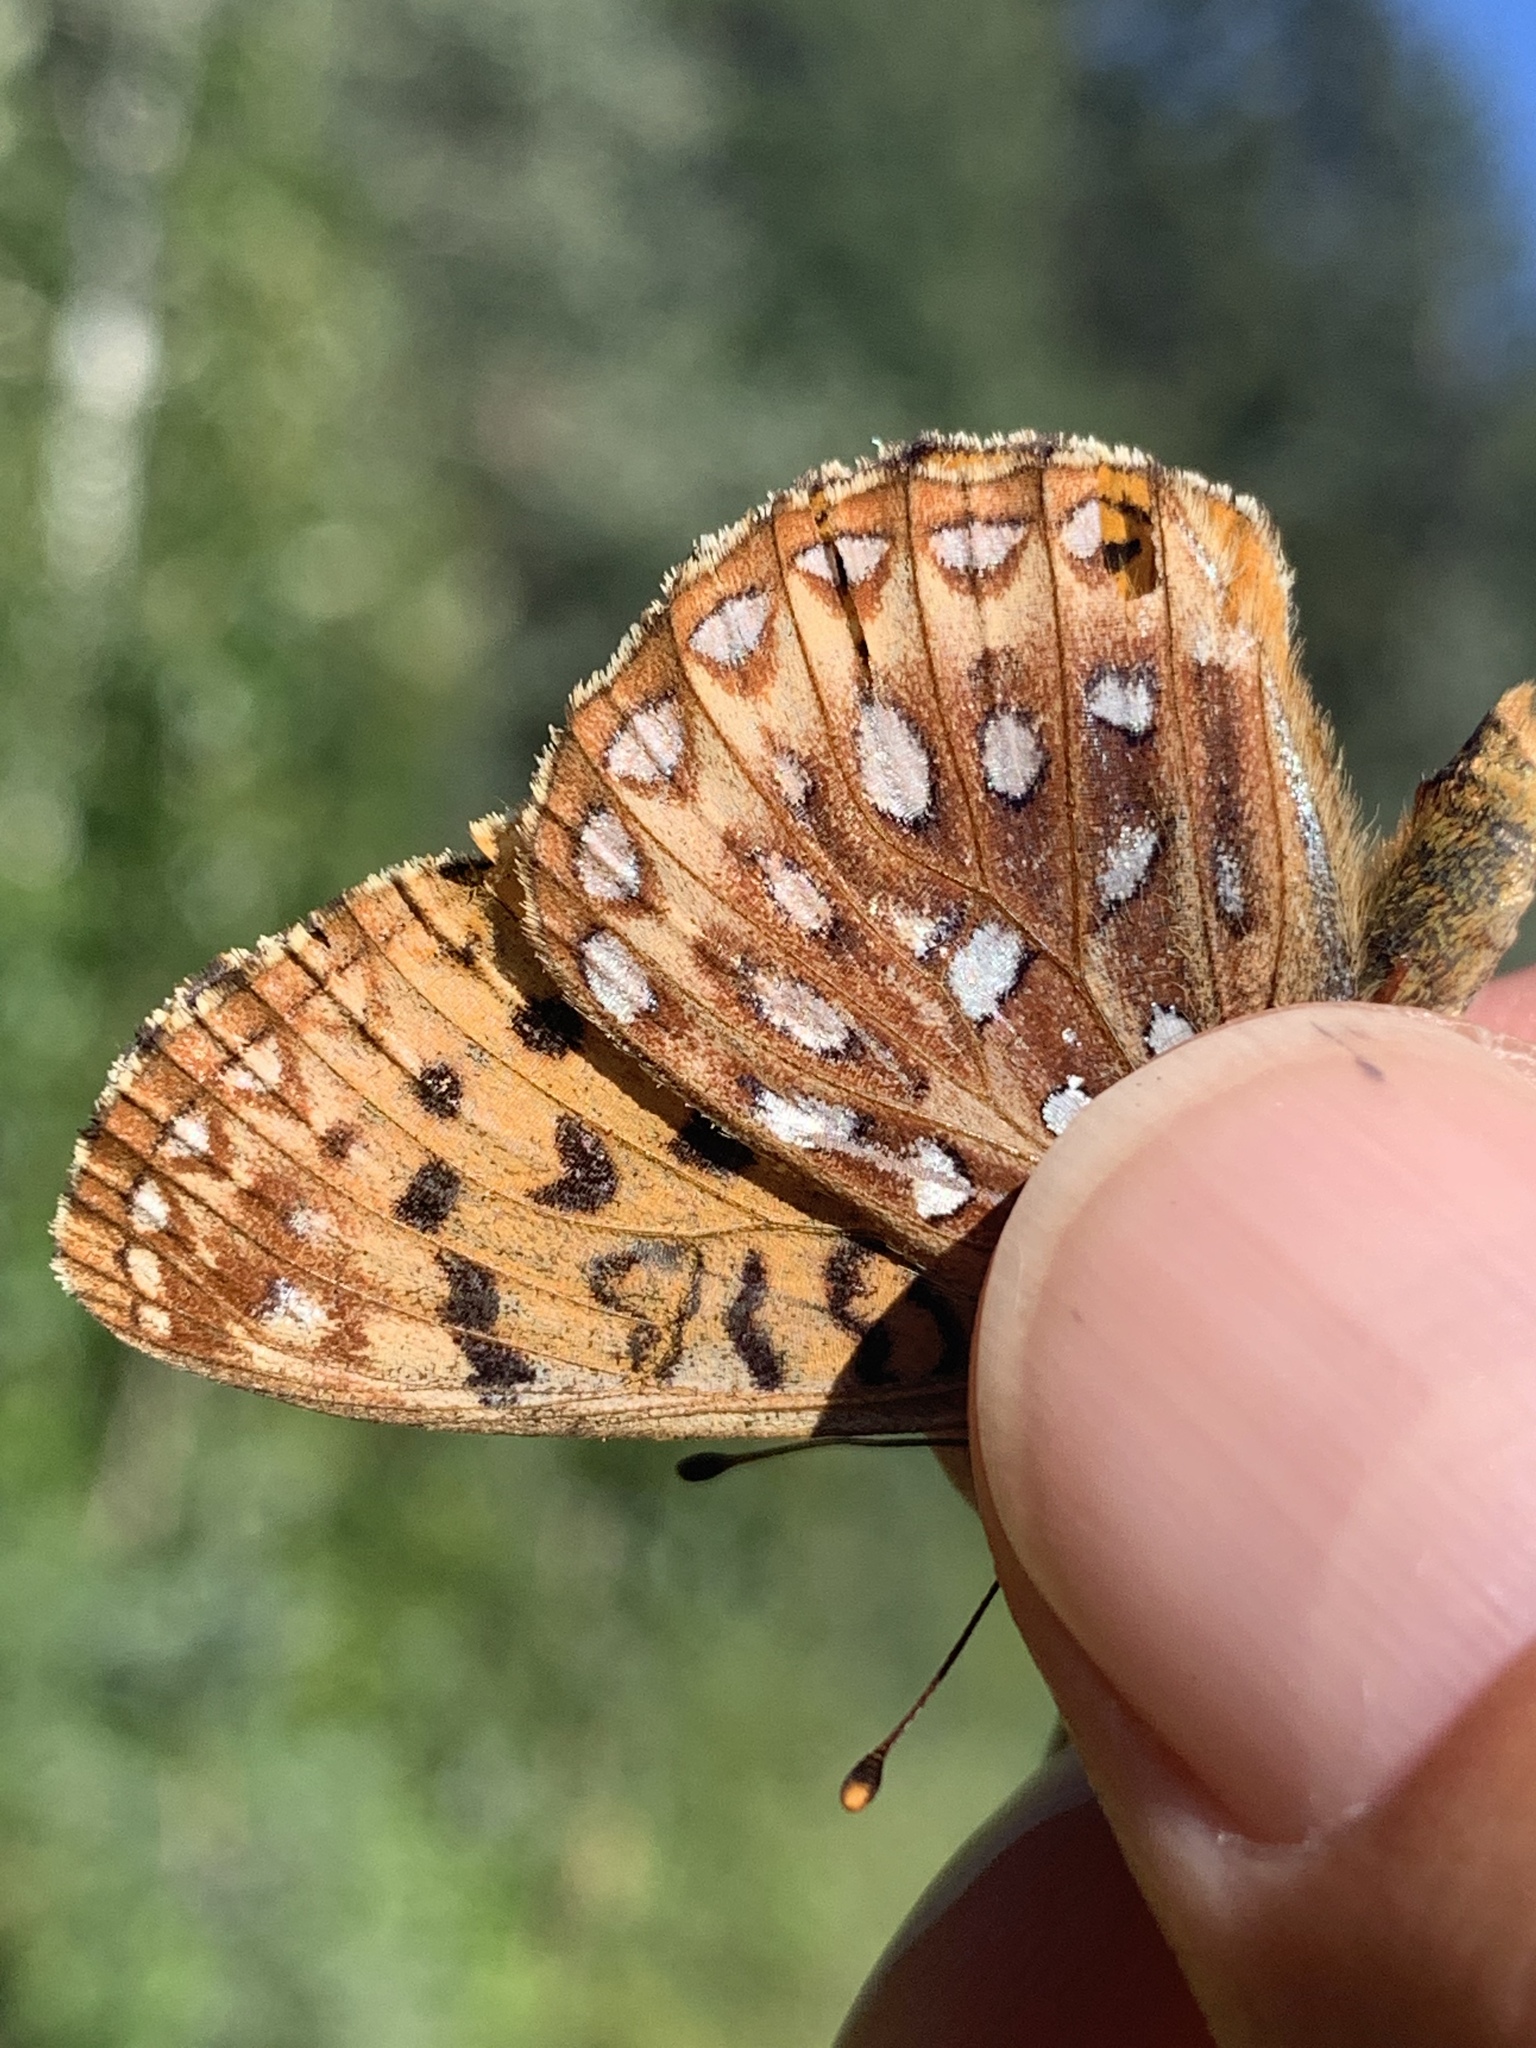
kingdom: Animalia
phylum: Arthropoda
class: Insecta
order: Lepidoptera
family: Nymphalidae
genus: Speyeria
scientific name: Speyeria atlantis
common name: Atlantis fritillary
